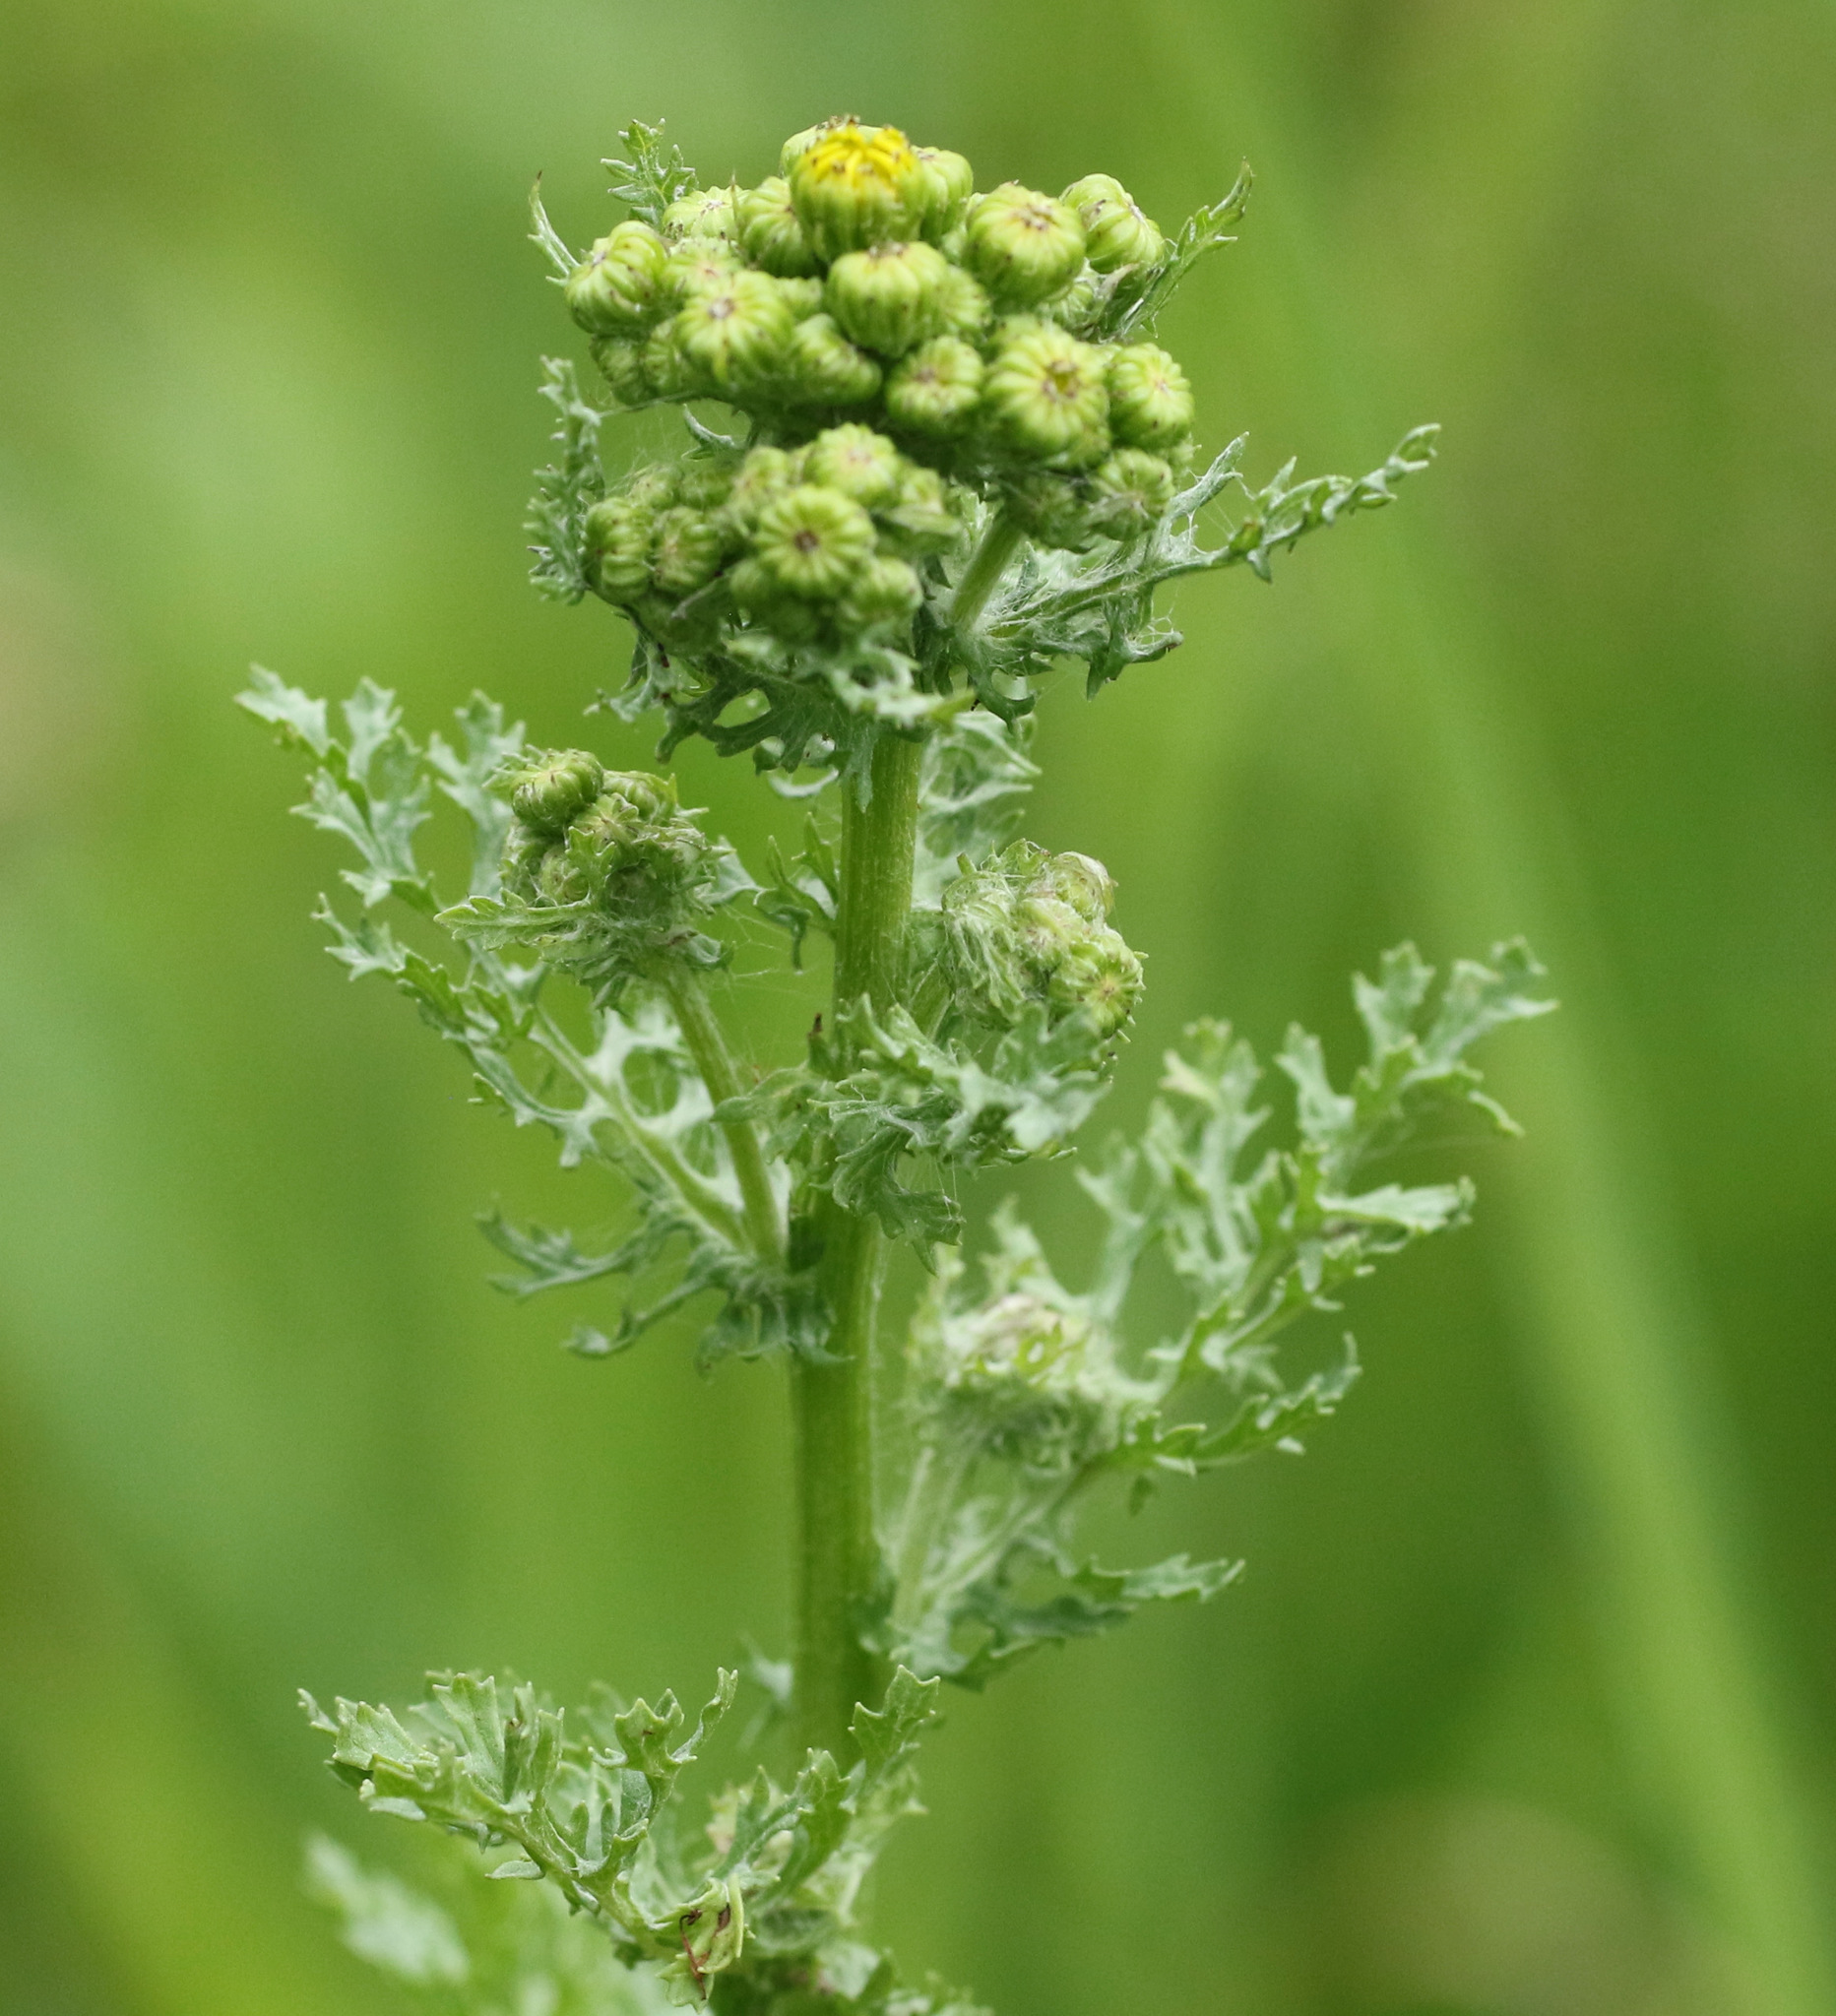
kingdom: Plantae
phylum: Tracheophyta
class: Magnoliopsida
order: Asterales
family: Asteraceae
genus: Jacobaea
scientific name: Jacobaea vulgaris
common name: Stinking willie
